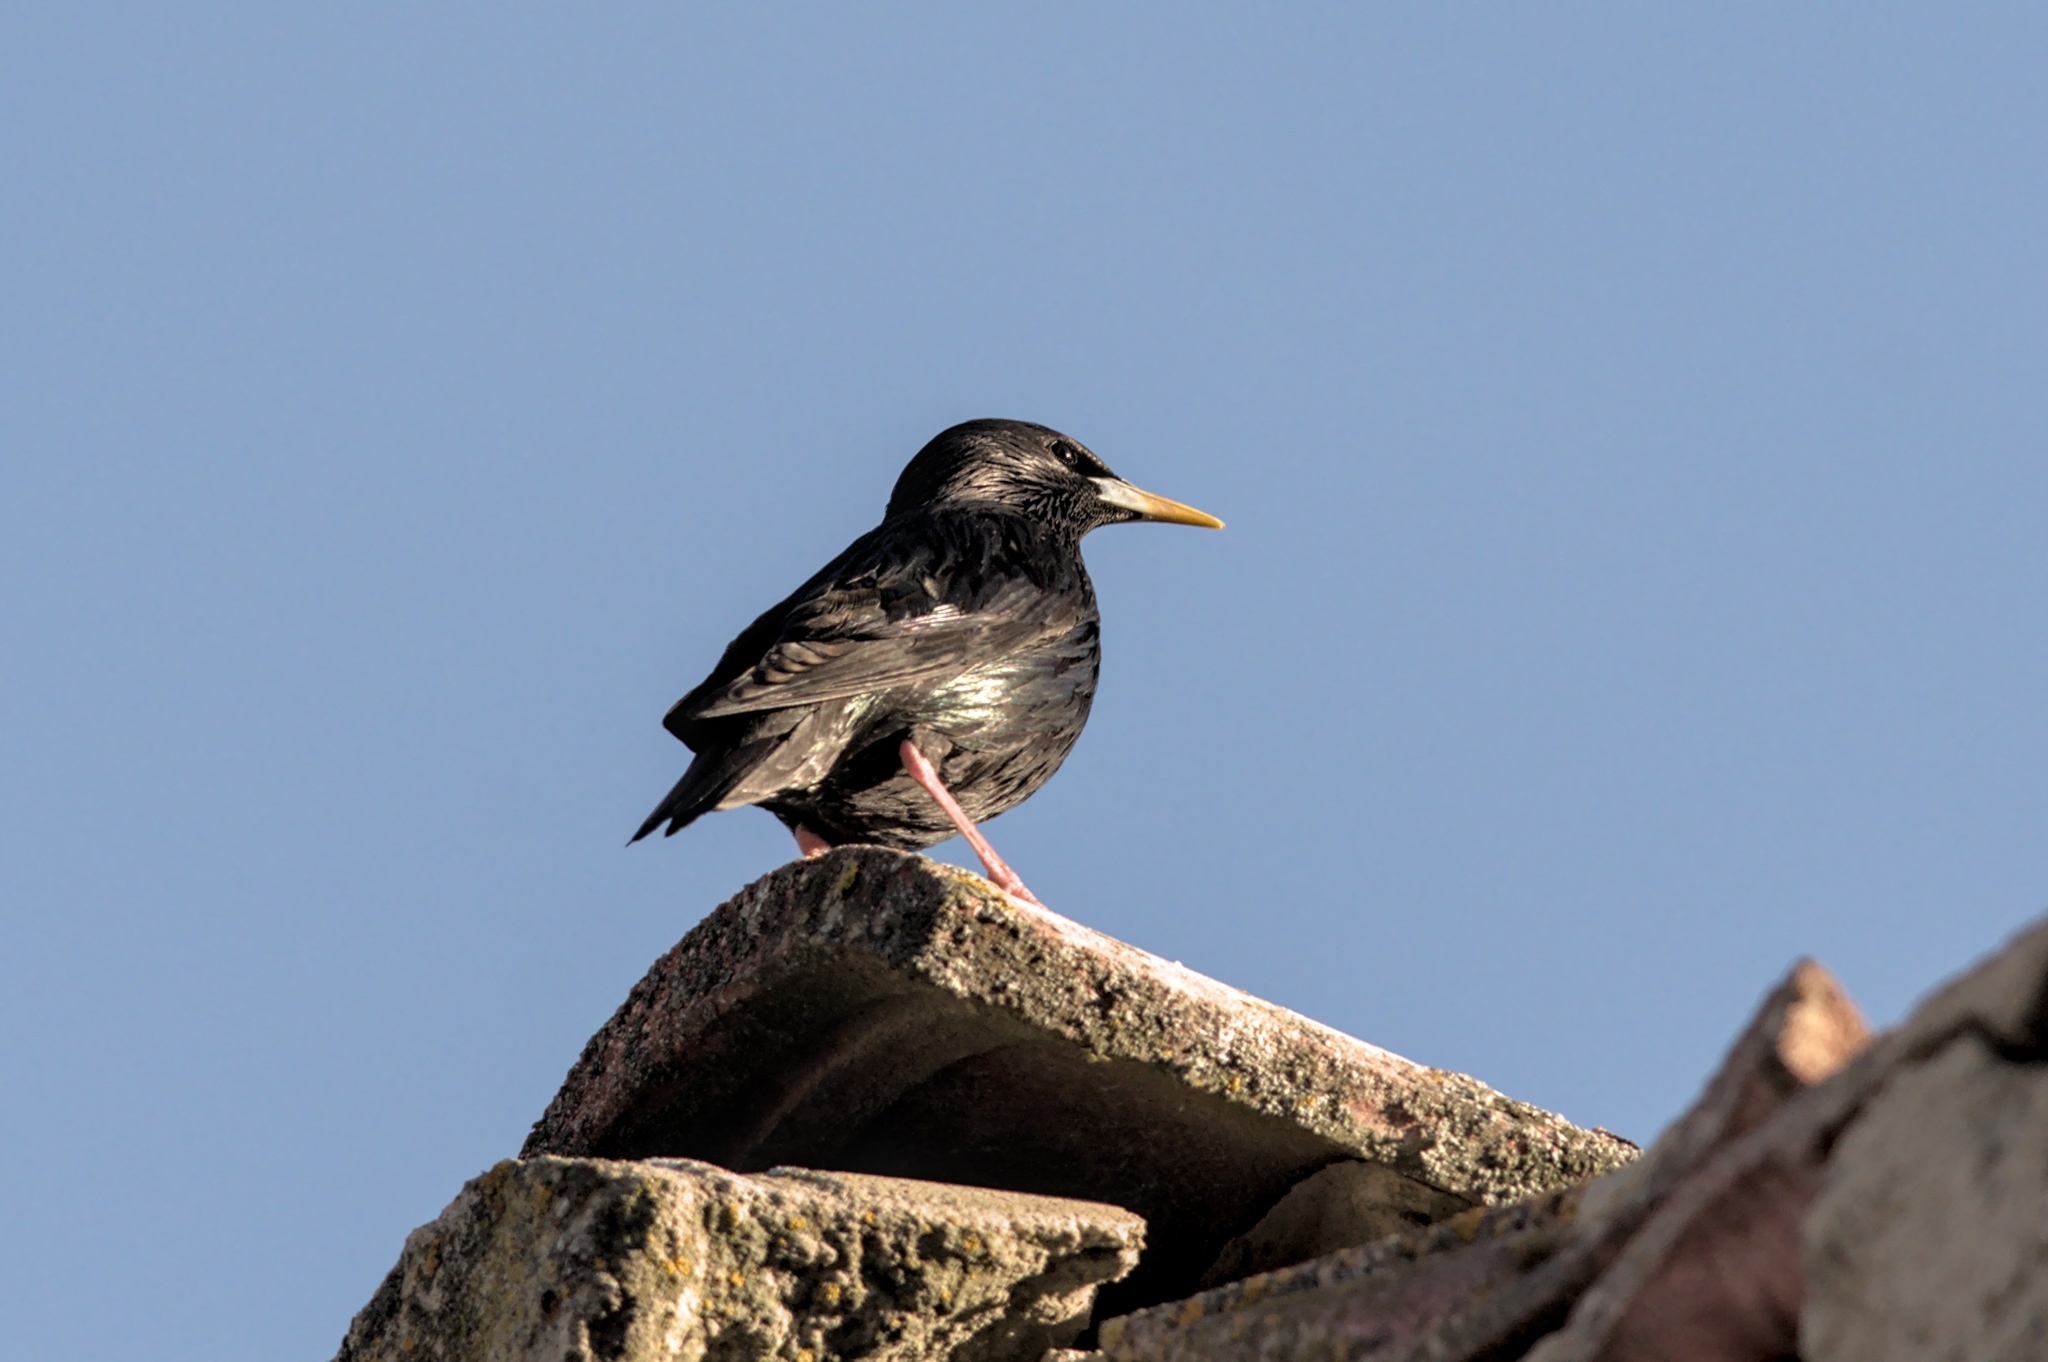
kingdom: Animalia
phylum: Chordata
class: Aves
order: Passeriformes
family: Sturnidae
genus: Sturnus
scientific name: Sturnus unicolor
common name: Spotless starling
